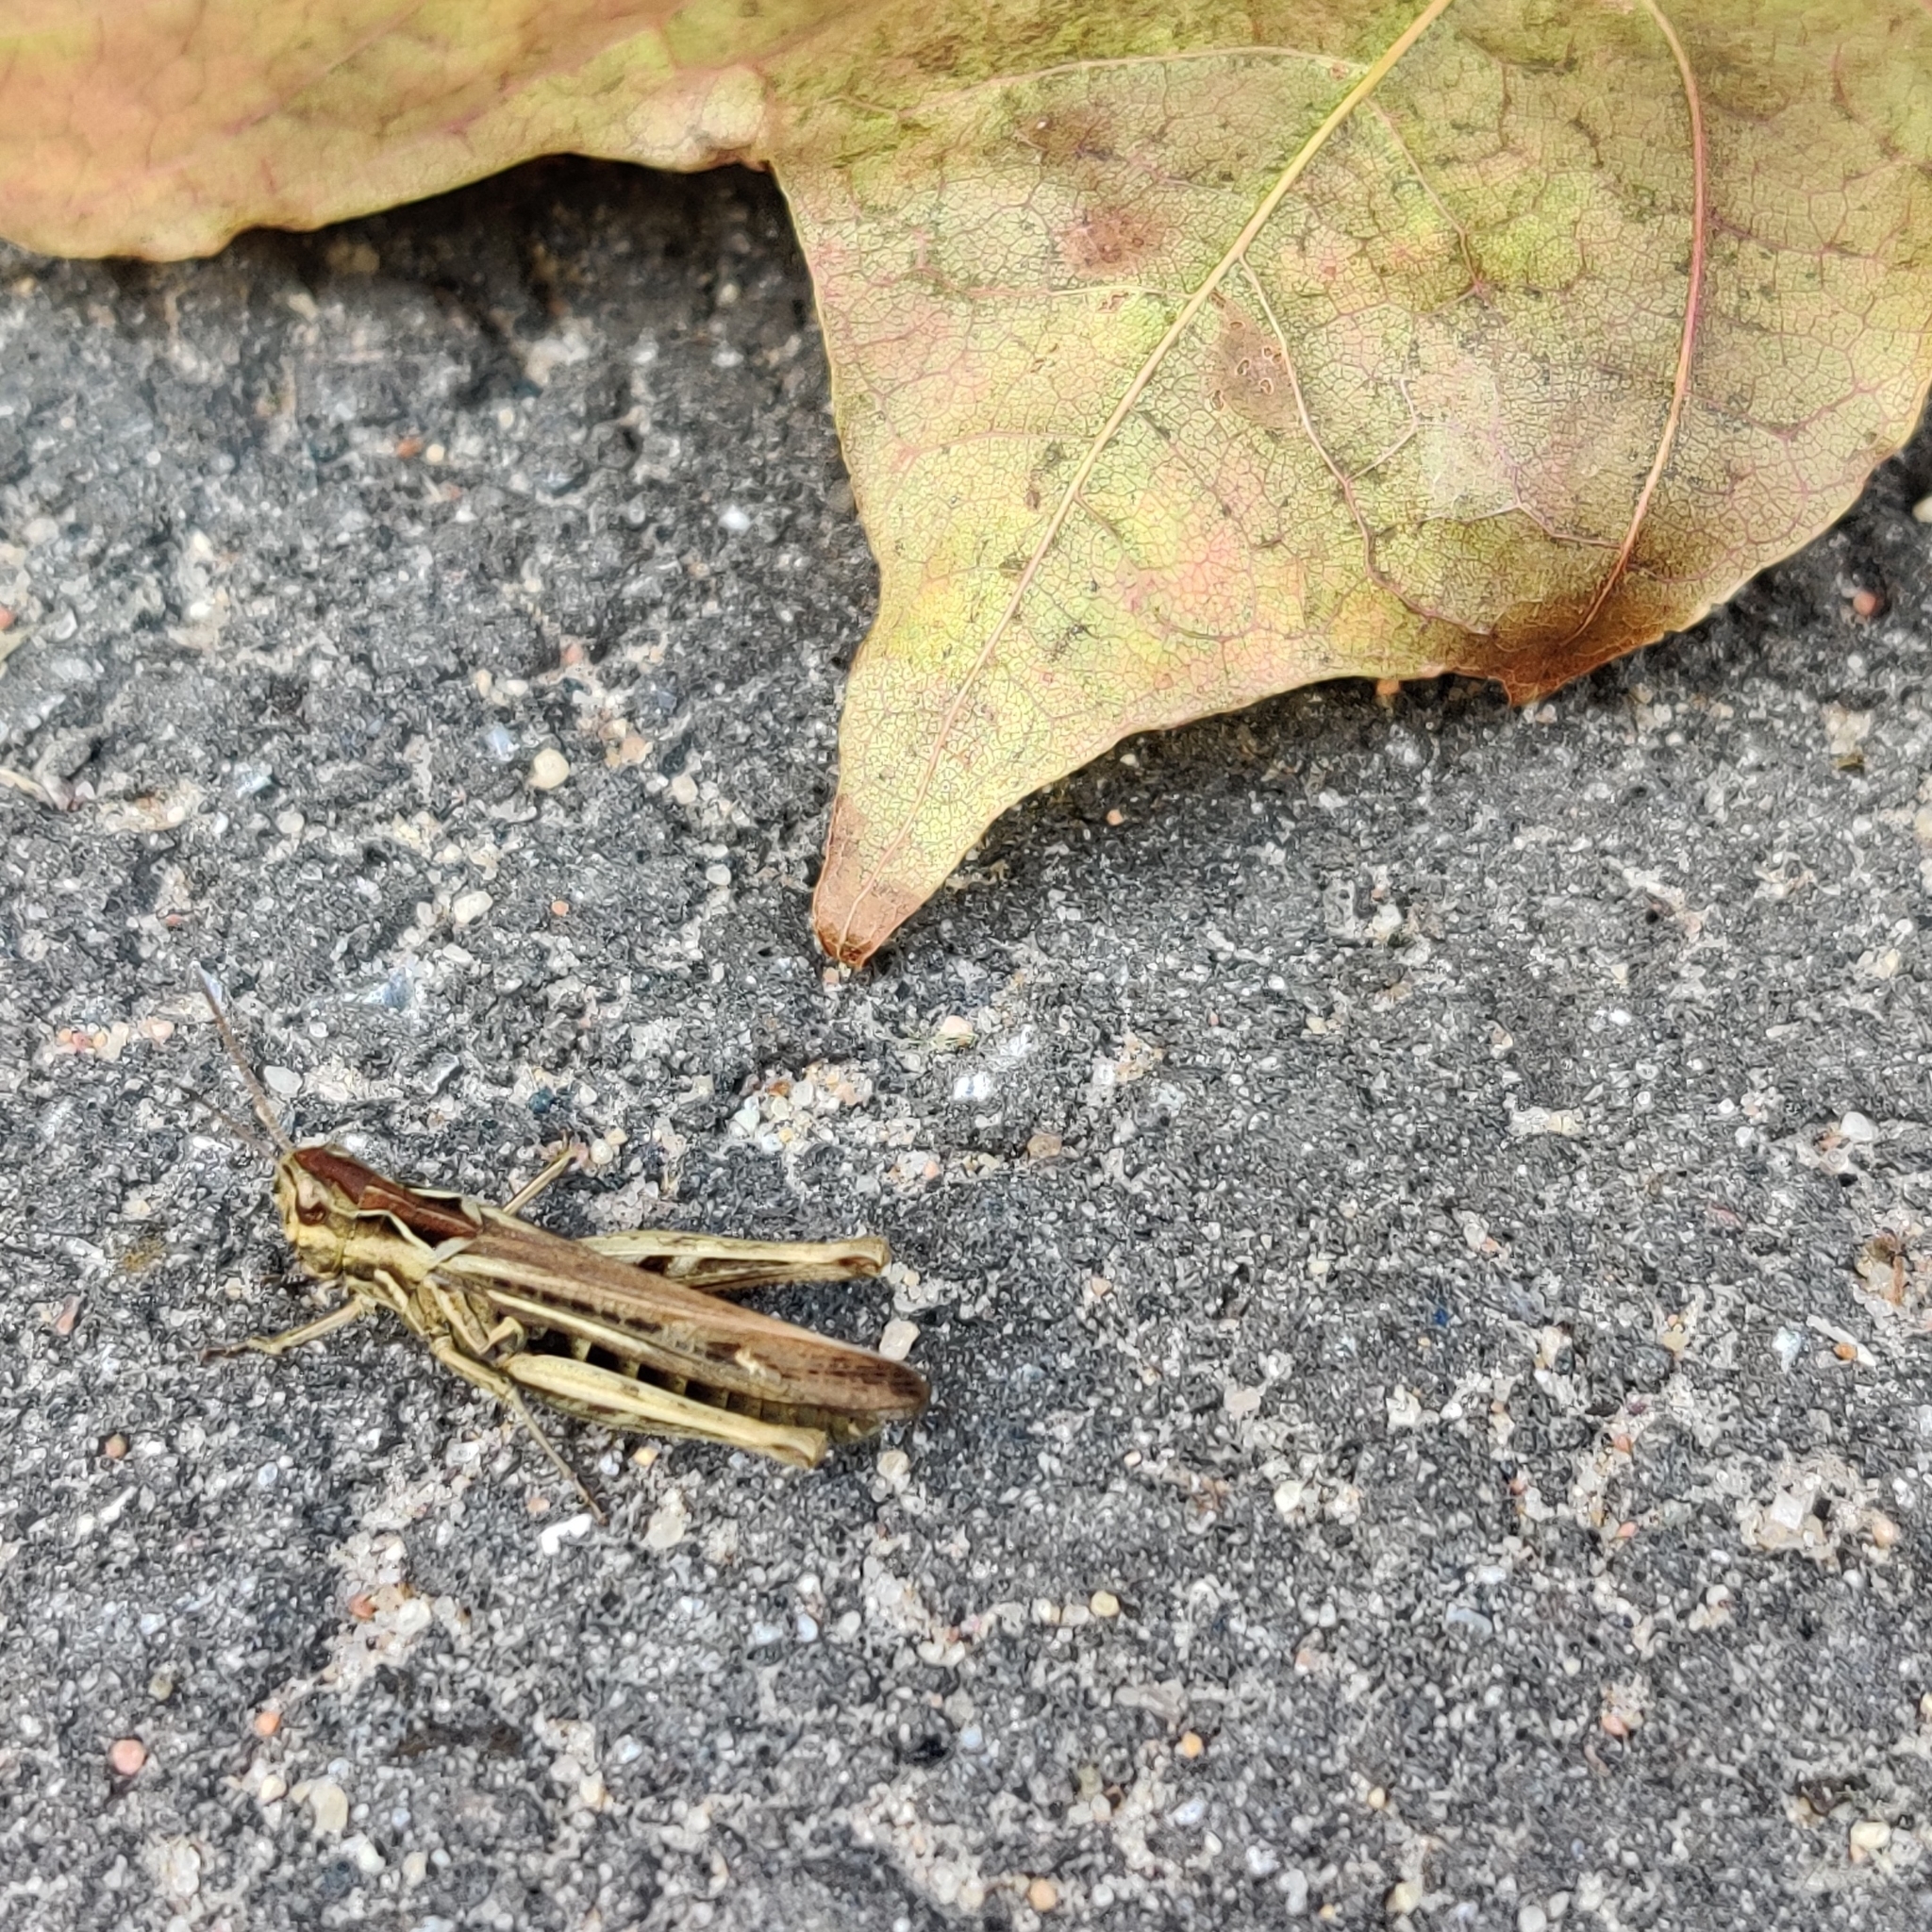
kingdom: Animalia
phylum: Arthropoda
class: Insecta
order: Orthoptera
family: Acrididae
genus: Glyptobothrus
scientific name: Glyptobothrus
